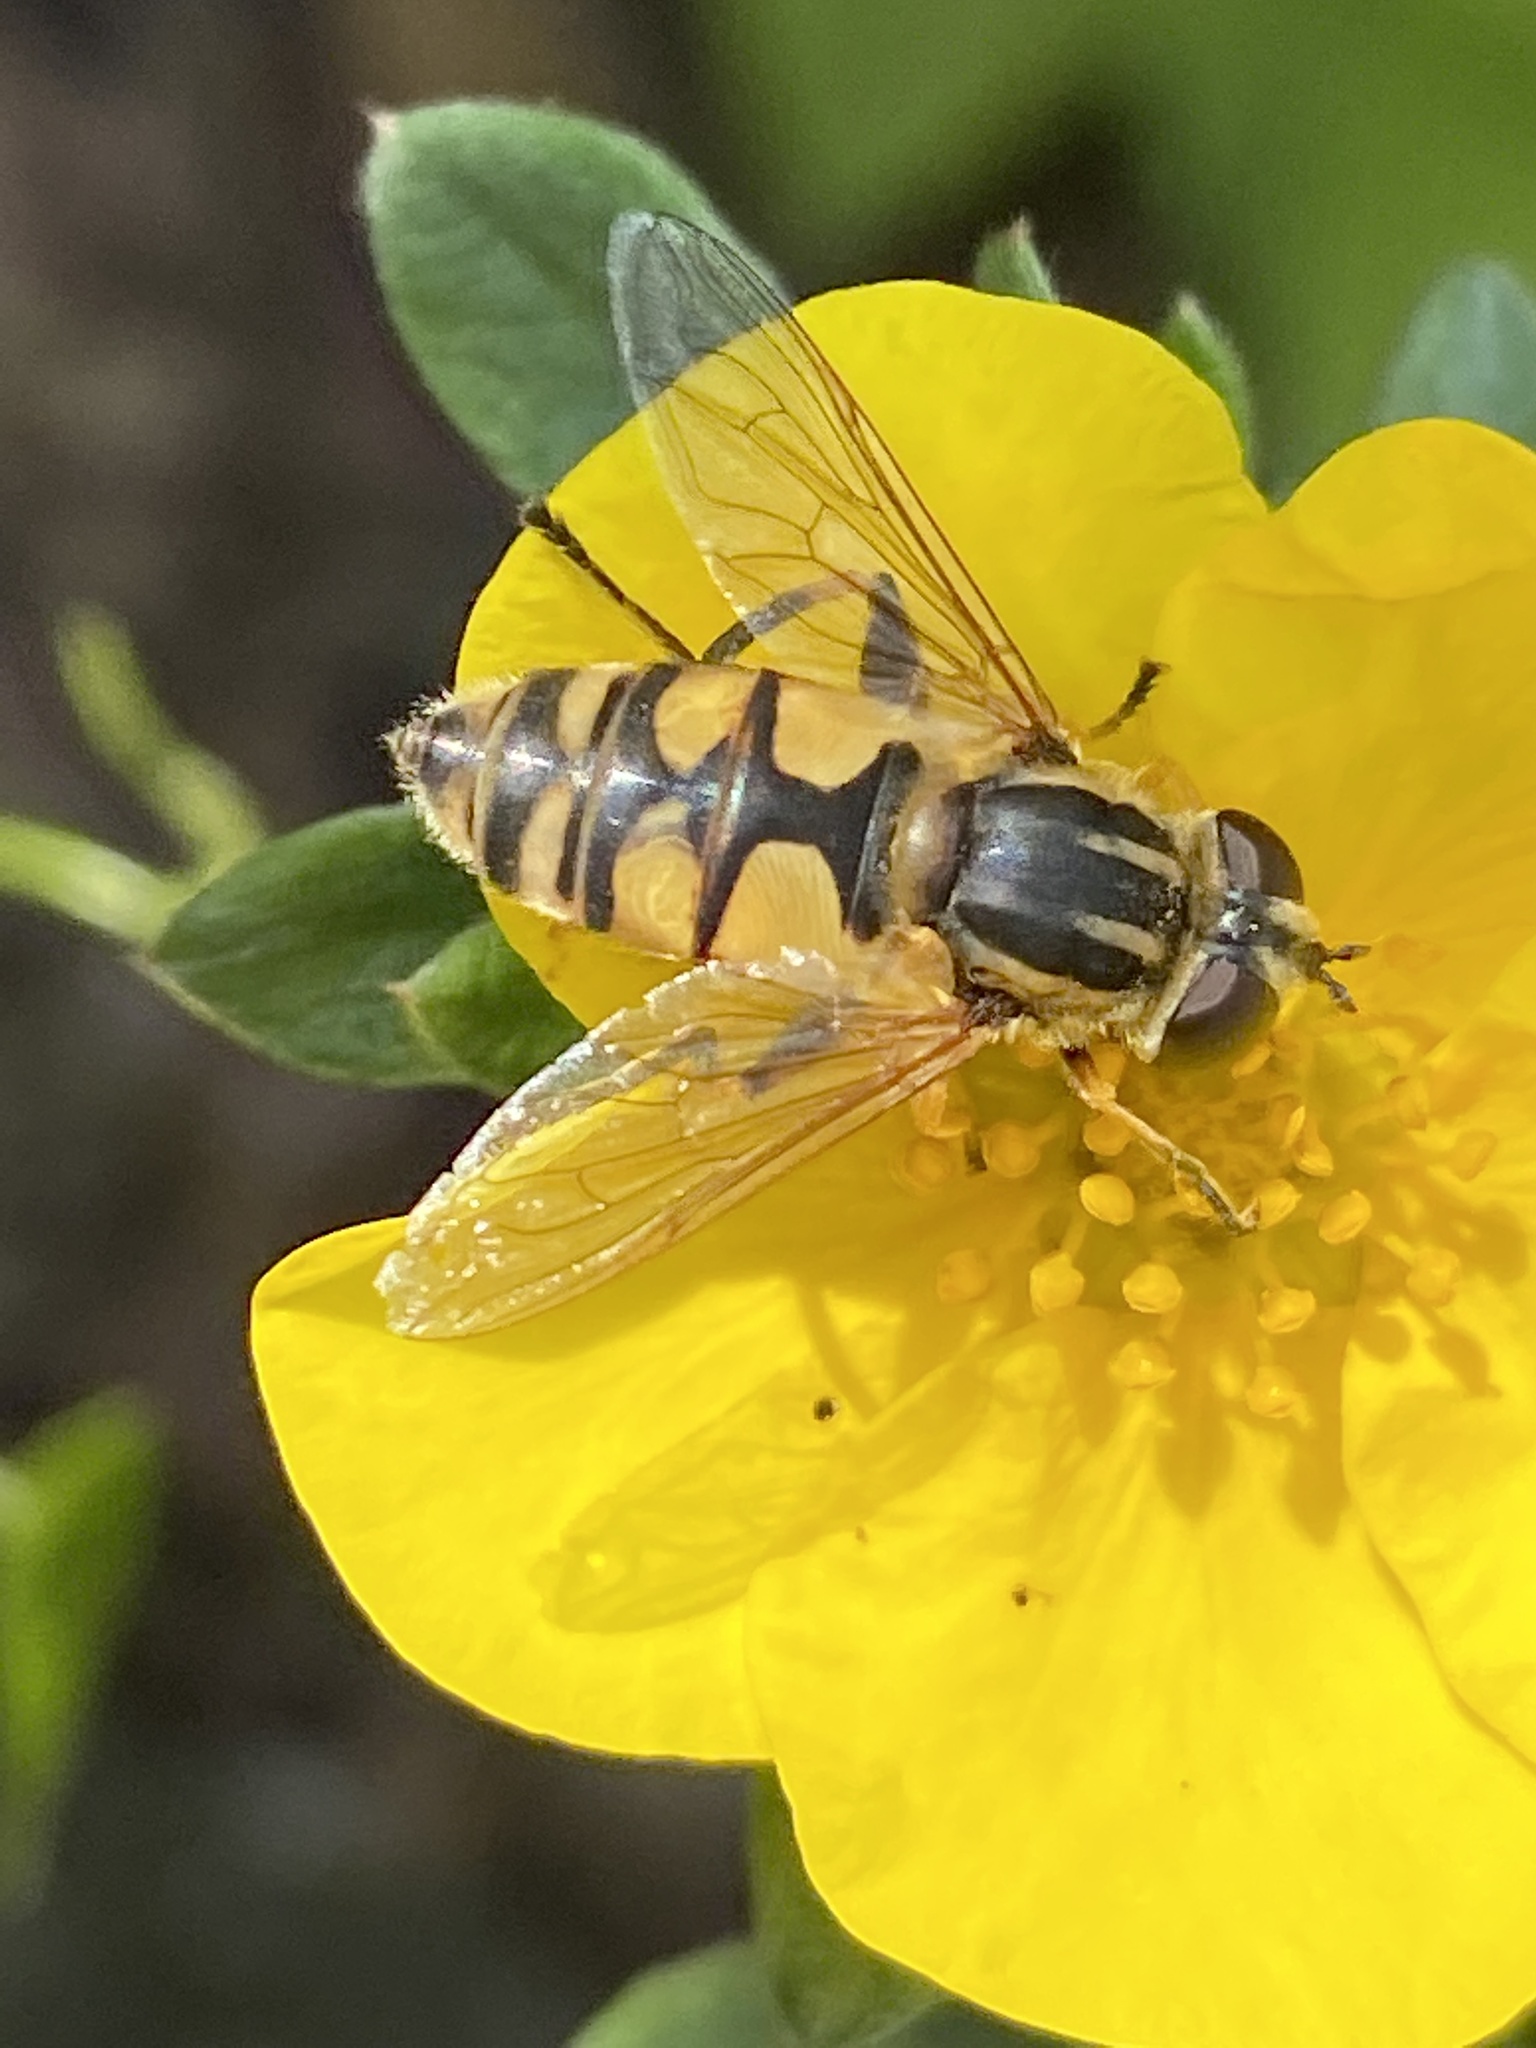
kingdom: Animalia
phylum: Arthropoda
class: Insecta
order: Diptera
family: Syrphidae
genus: Helophilus
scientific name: Helophilus hybridus
